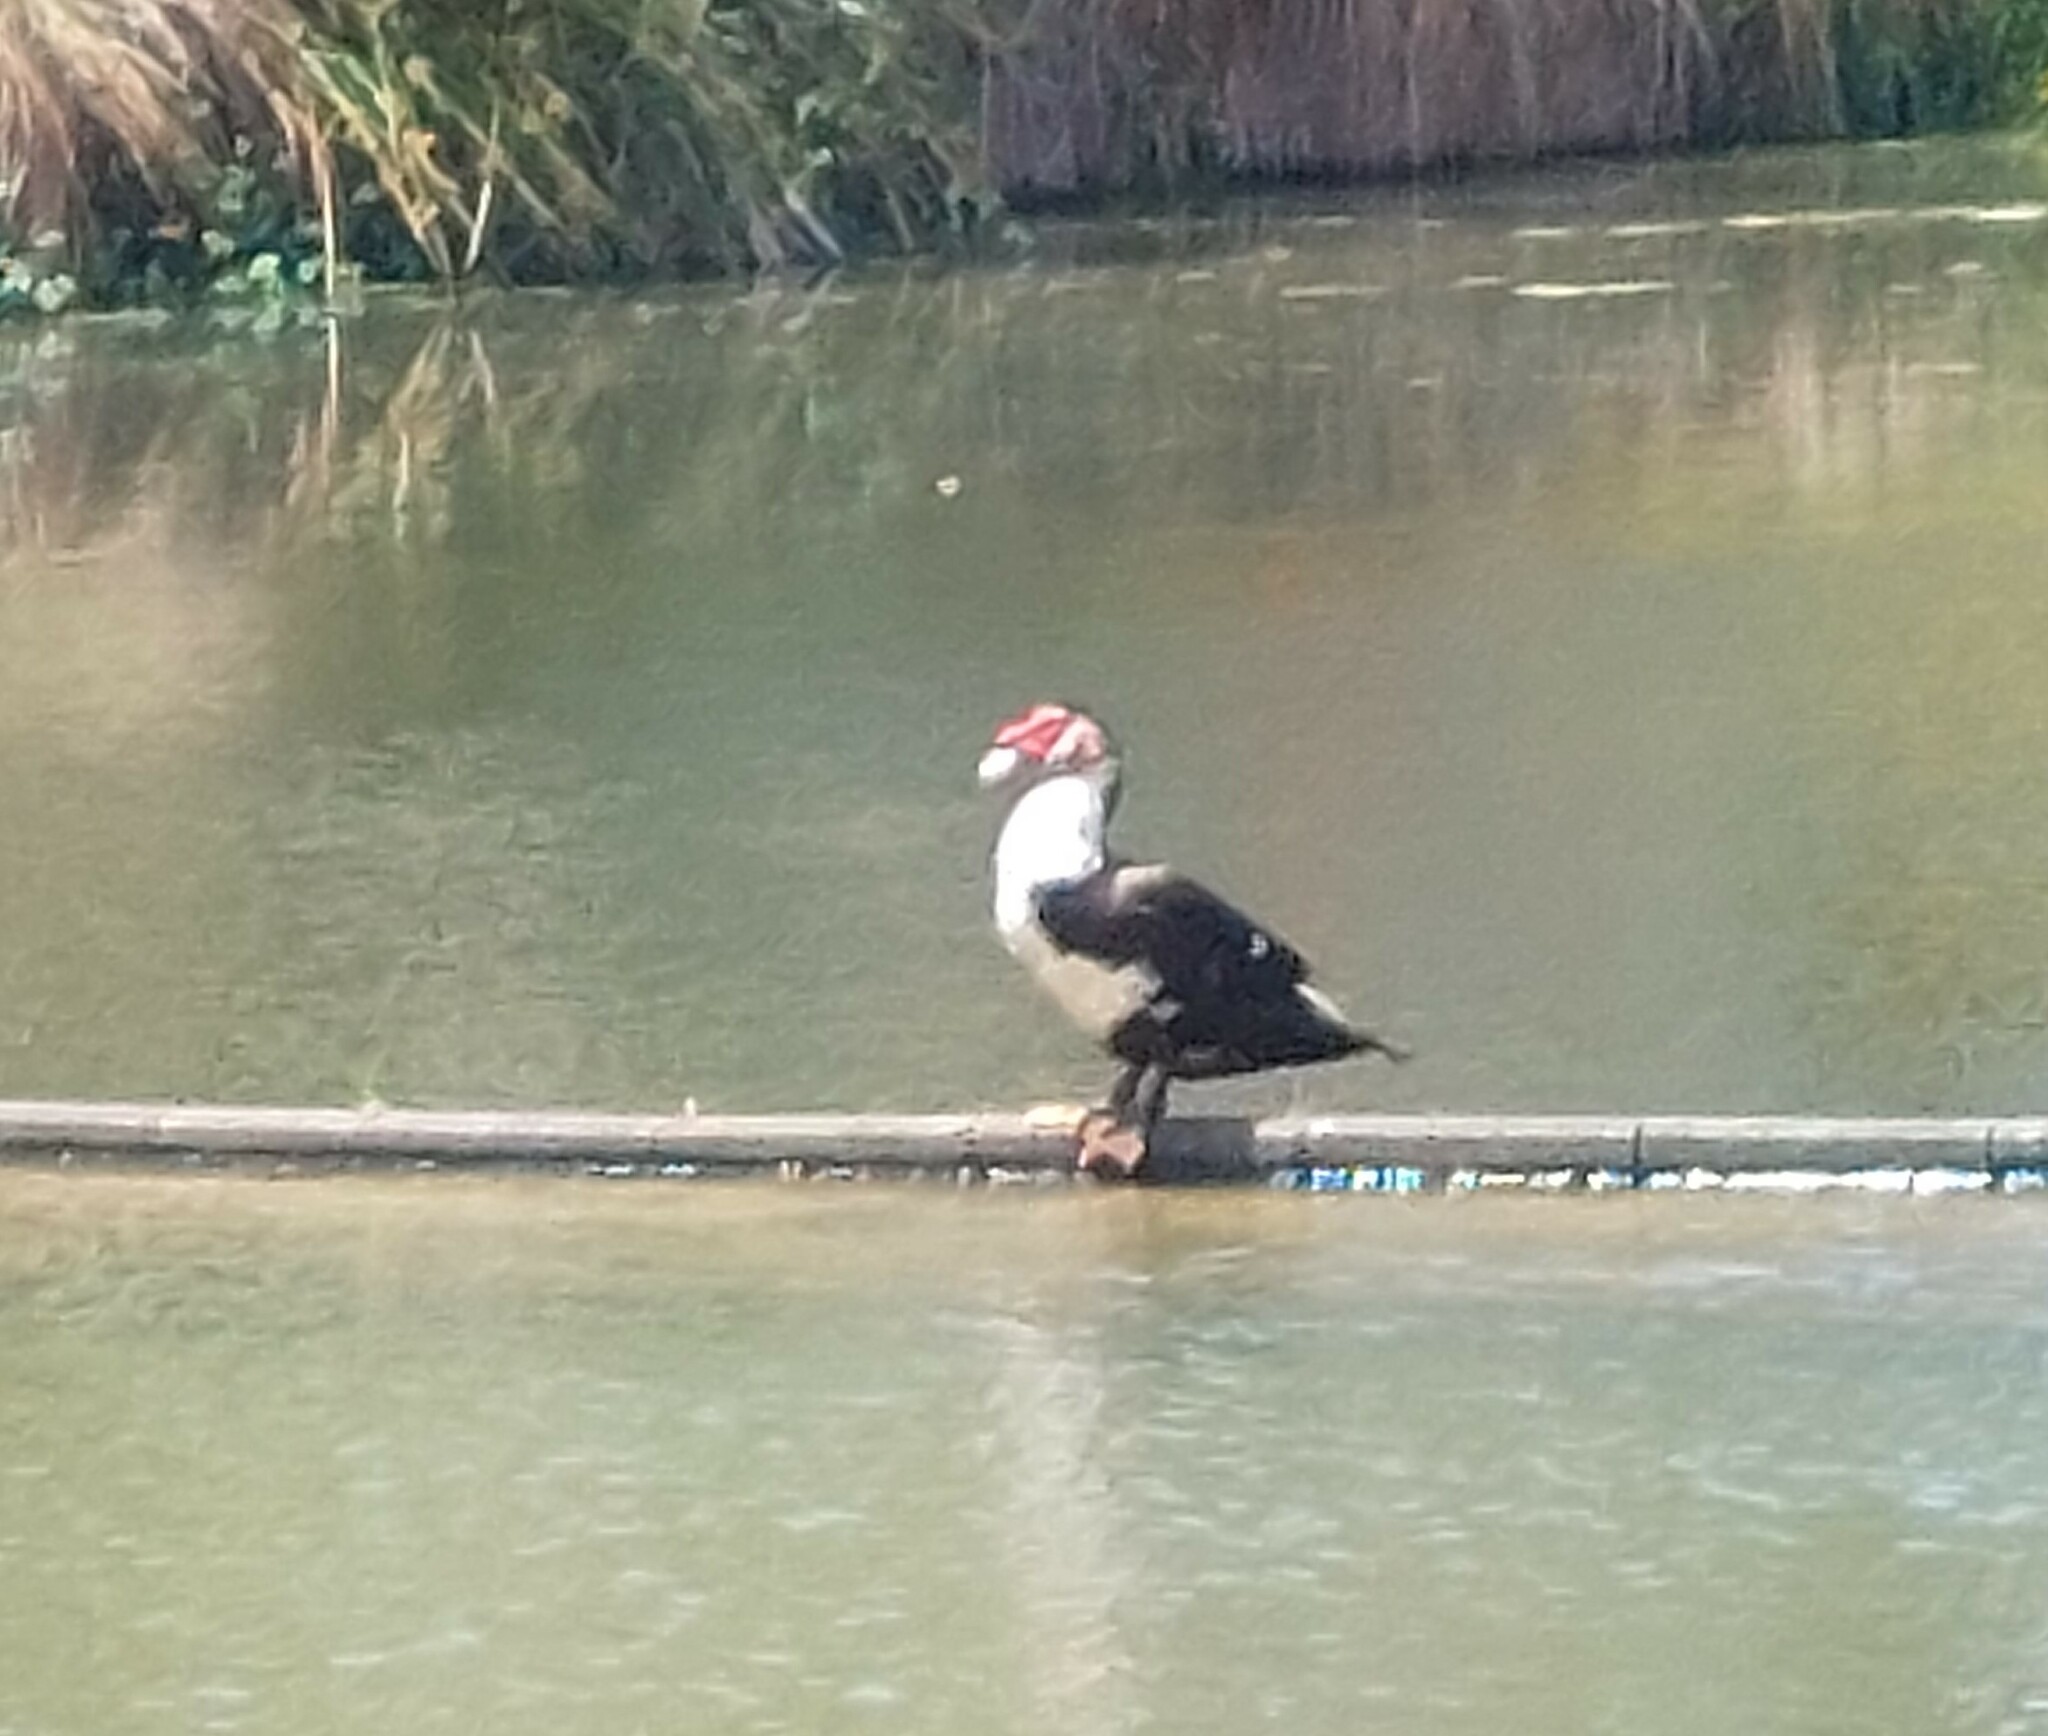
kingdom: Animalia
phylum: Chordata
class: Aves
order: Anseriformes
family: Anatidae
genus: Cairina
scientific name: Cairina moschata
